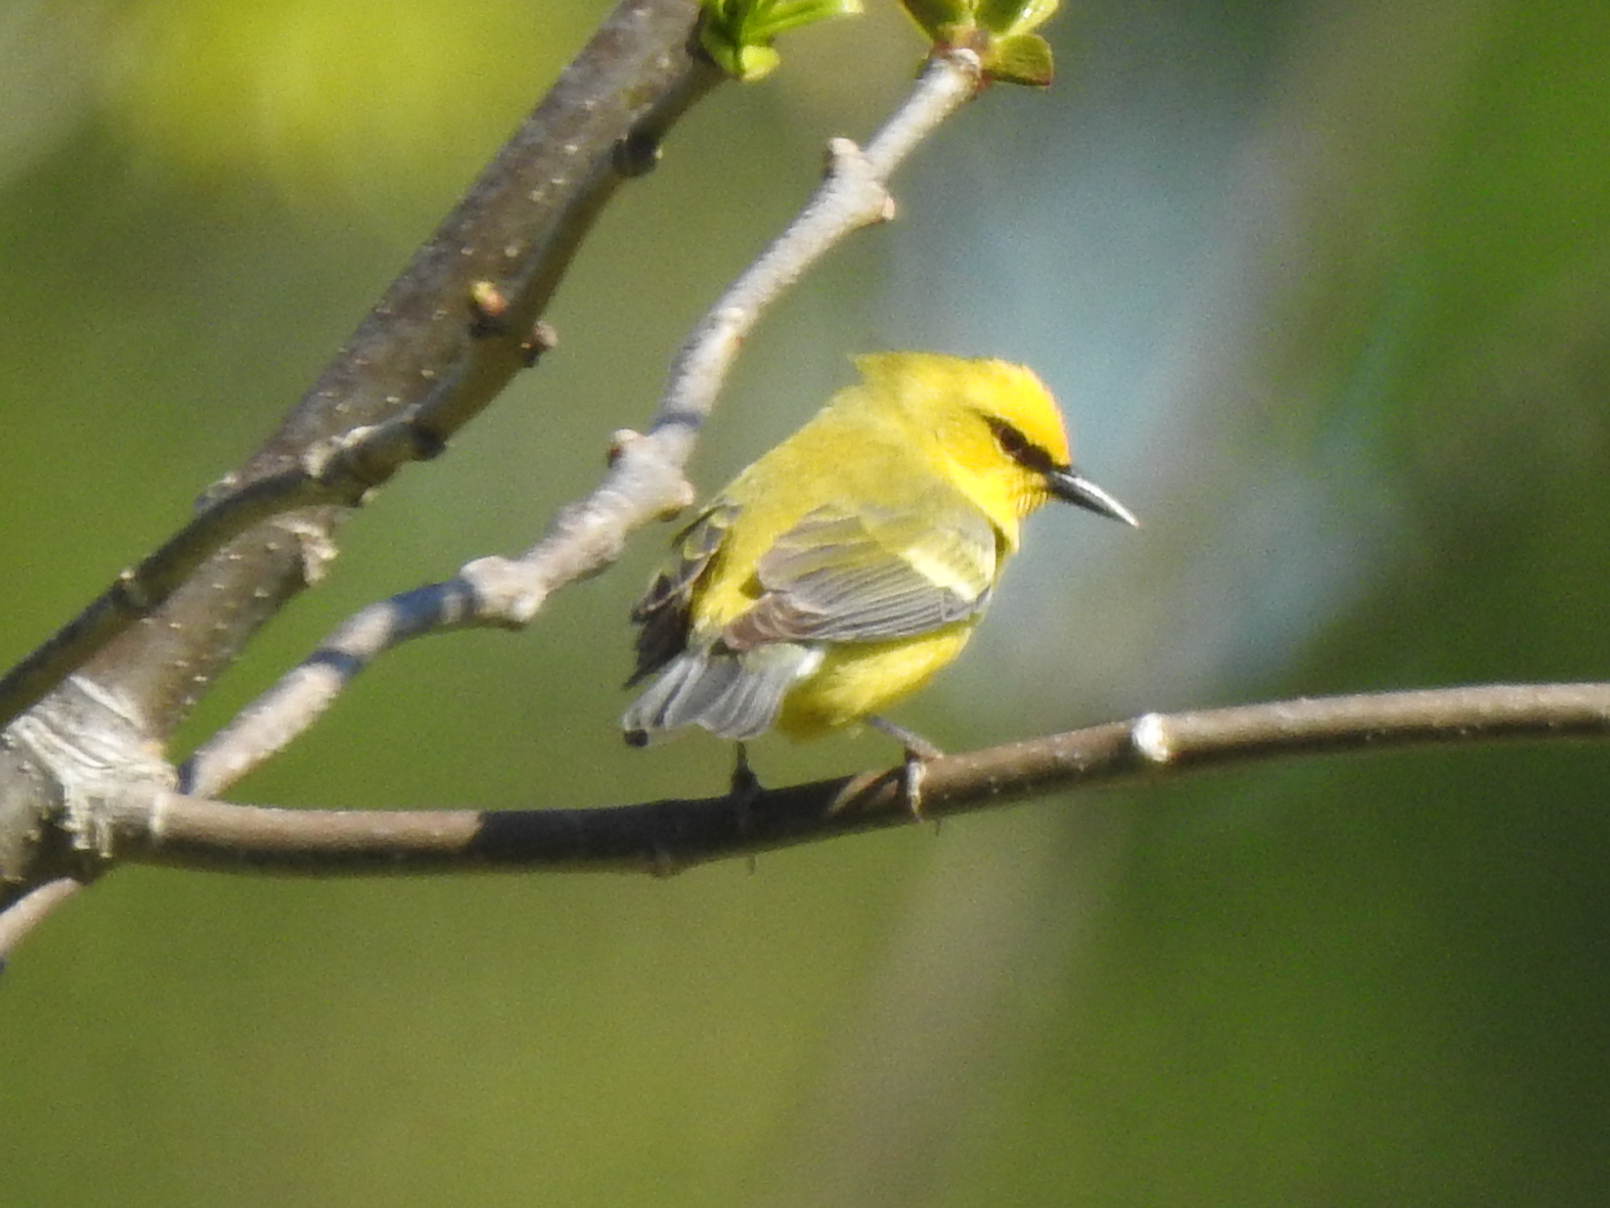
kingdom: Animalia
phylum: Chordata
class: Aves
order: Passeriformes
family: Parulidae
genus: Vermivora
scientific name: Vermivora cyanoptera
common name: Blue-winged warbler
